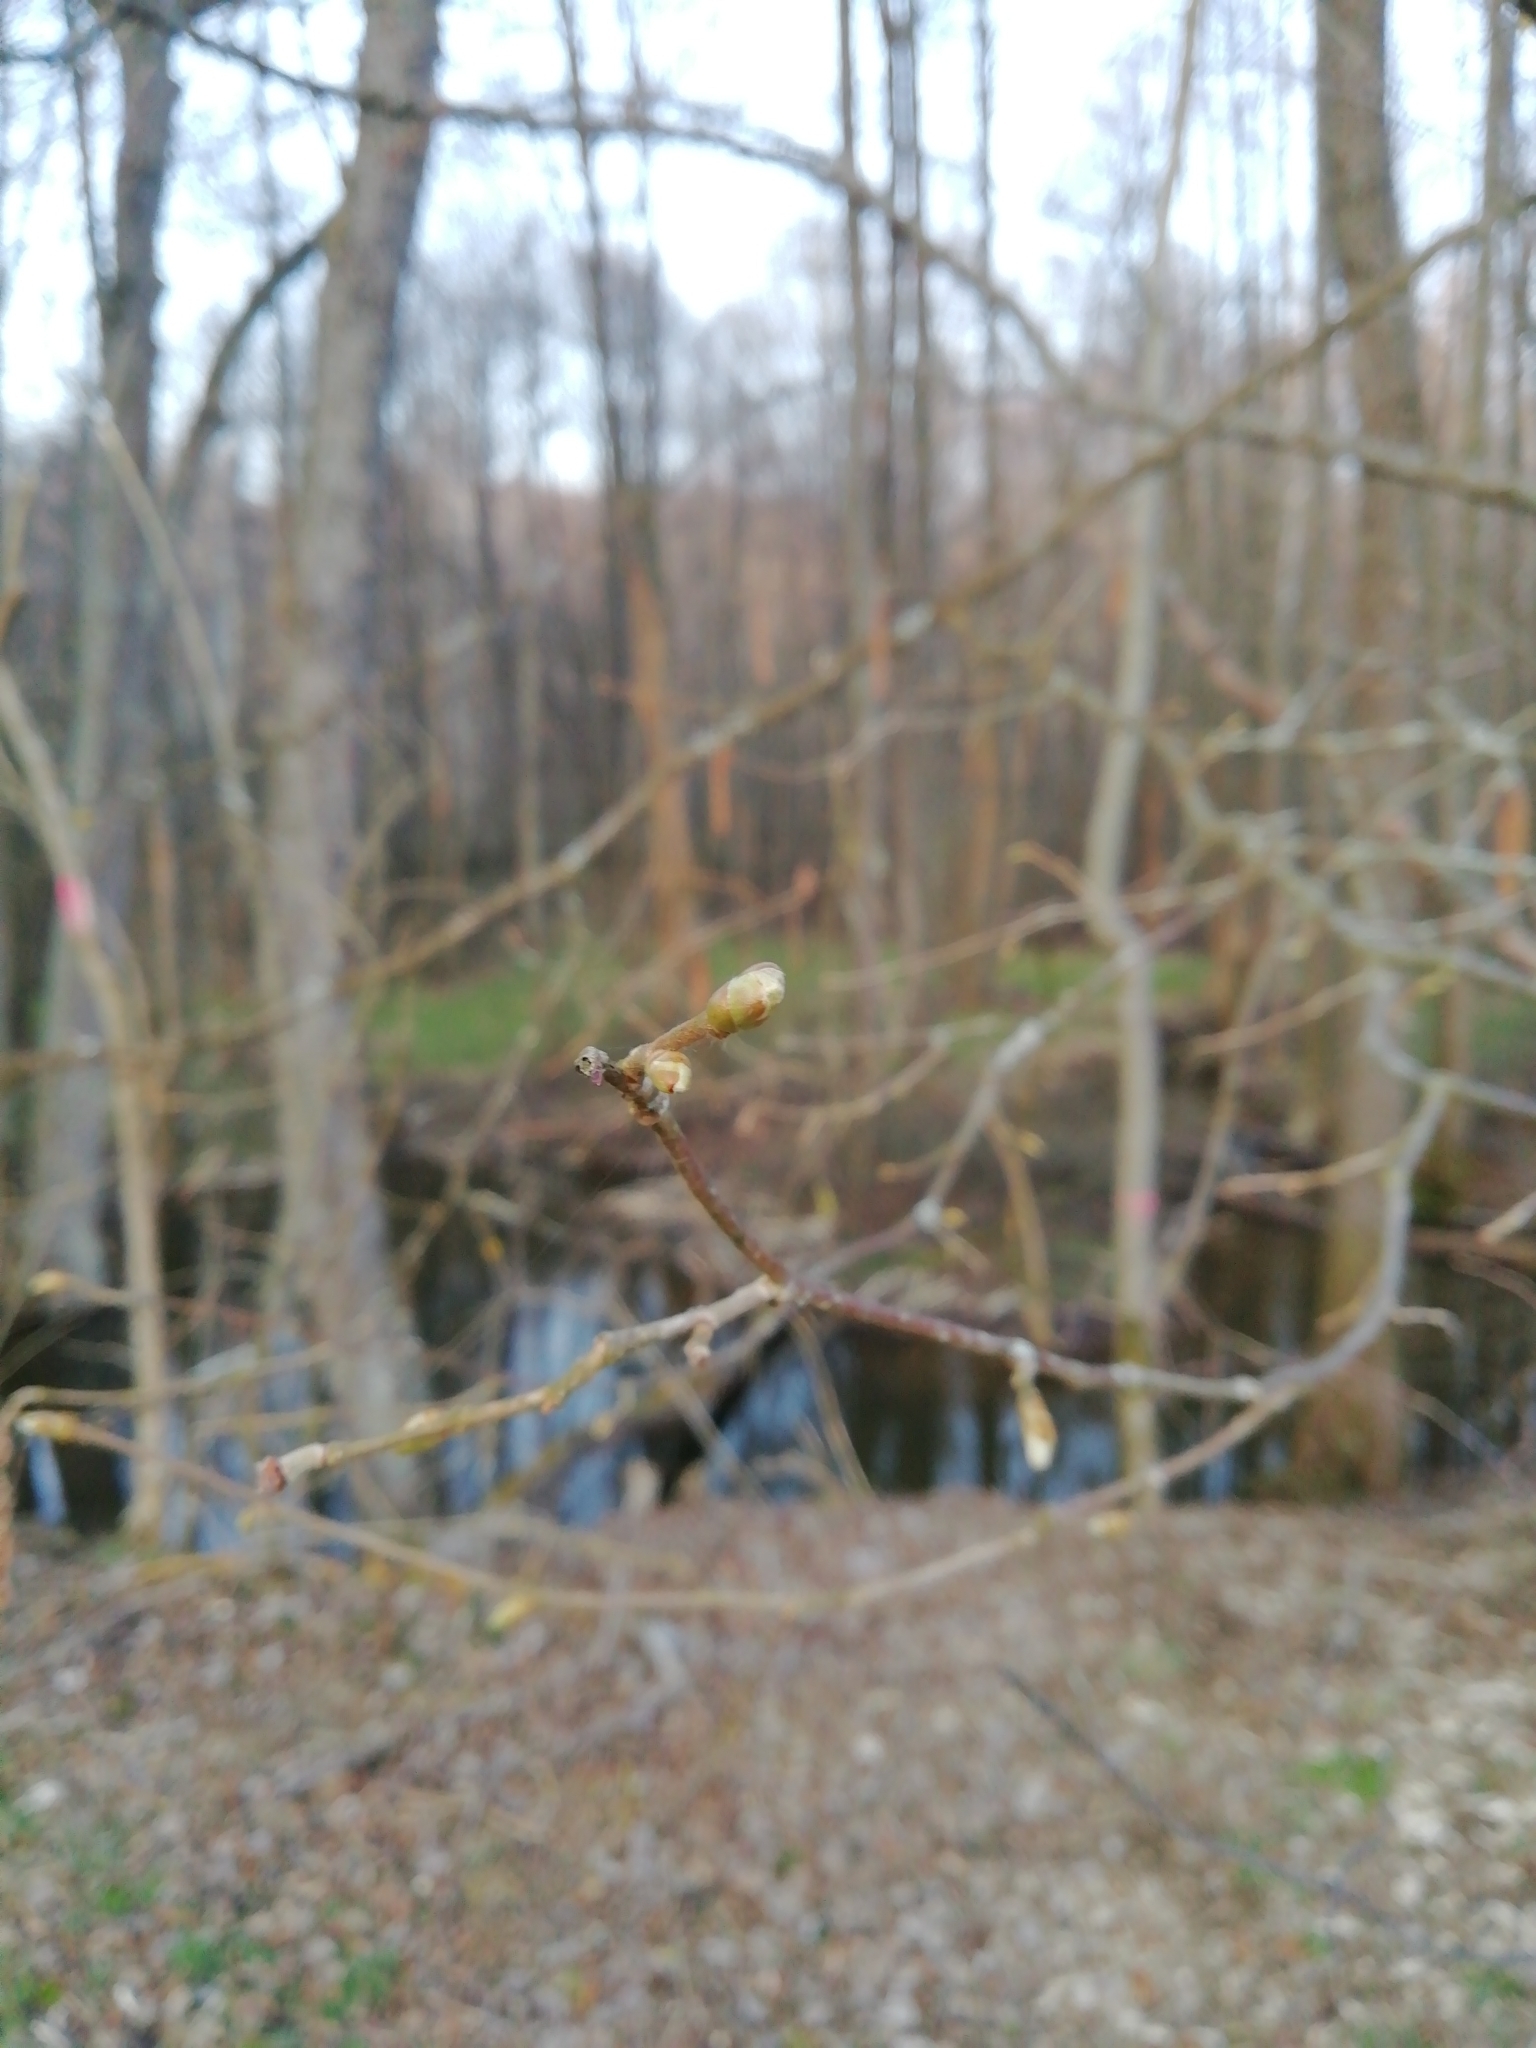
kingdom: Plantae
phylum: Tracheophyta
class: Magnoliopsida
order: Fagales
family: Betulaceae
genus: Corylus
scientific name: Corylus avellana
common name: European hazel
